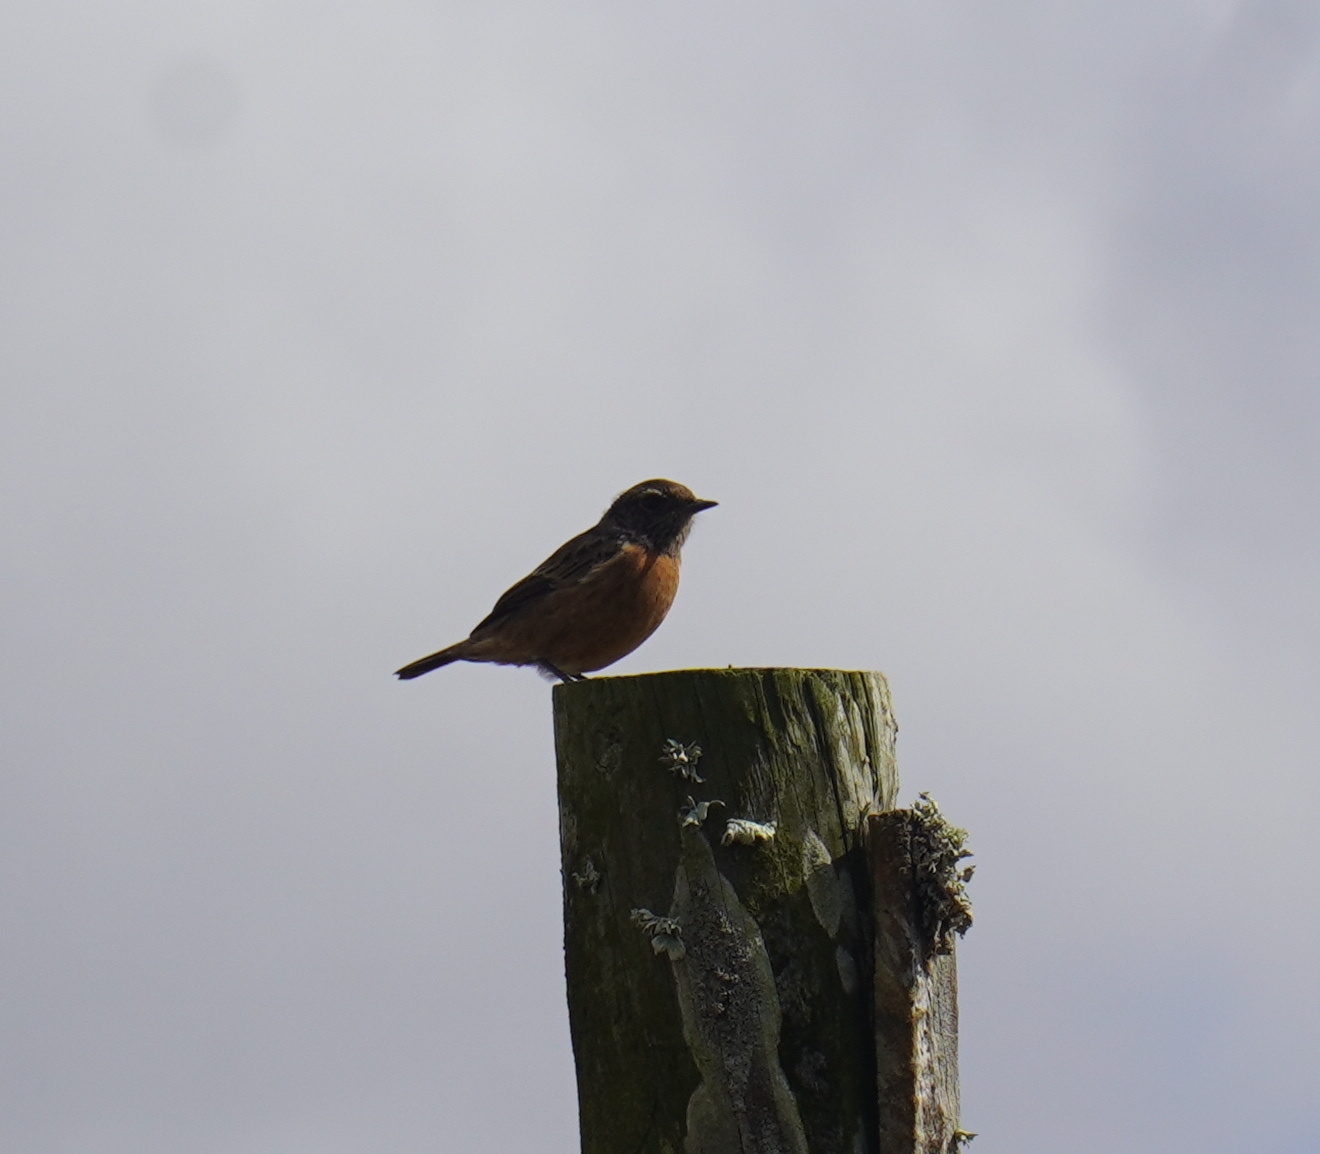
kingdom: Animalia
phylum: Chordata
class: Aves
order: Passeriformes
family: Muscicapidae
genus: Saxicola
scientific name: Saxicola rubicola
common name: European stonechat
